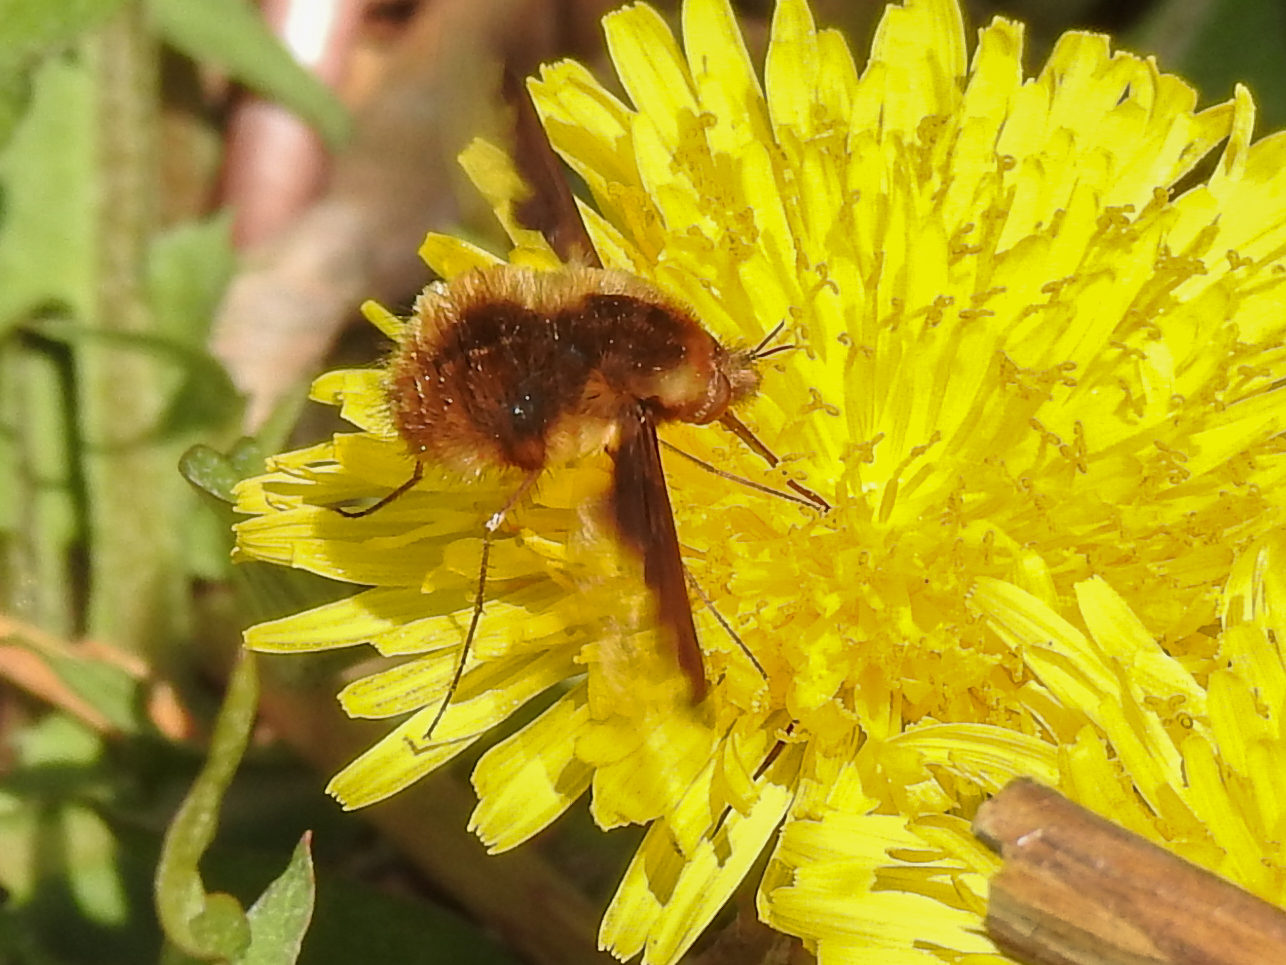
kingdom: Animalia
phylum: Arthropoda
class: Insecta
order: Diptera
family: Bombyliidae
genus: Bombylius
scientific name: Bombylius major
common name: Bee fly
